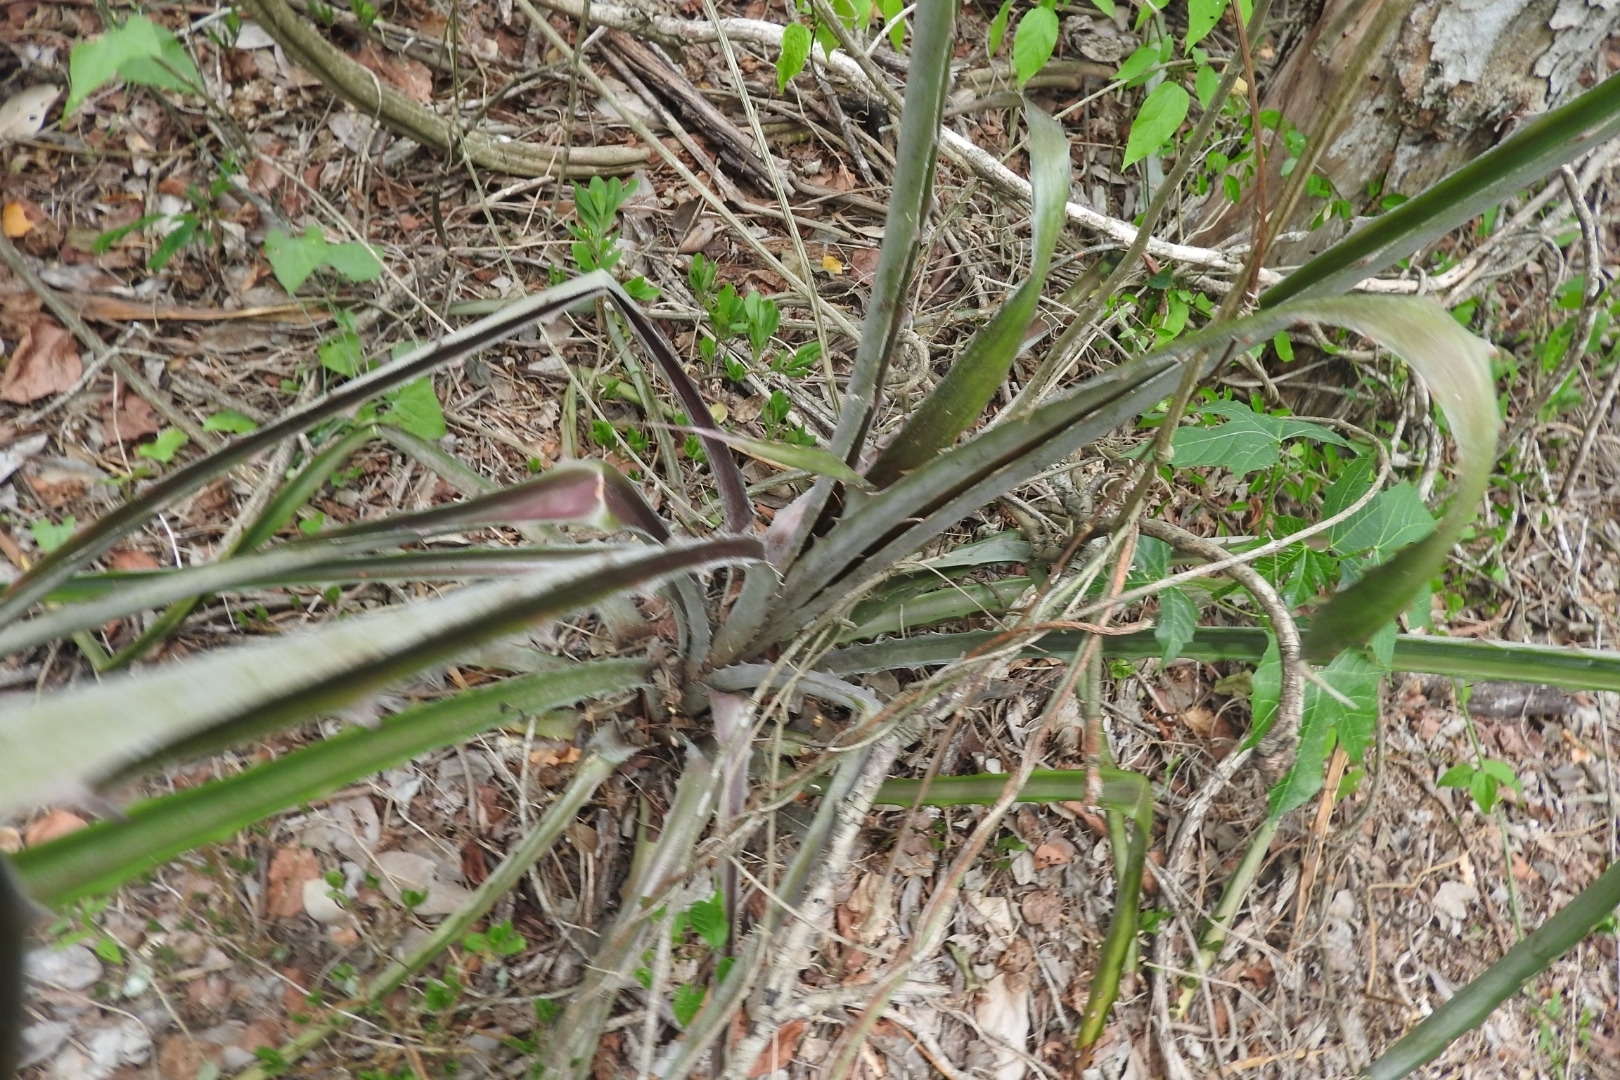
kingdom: Plantae
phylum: Tracheophyta
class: Liliopsida
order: Poales
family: Bromeliaceae
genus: Bromelia
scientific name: Bromelia pinguin
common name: Pinguin
